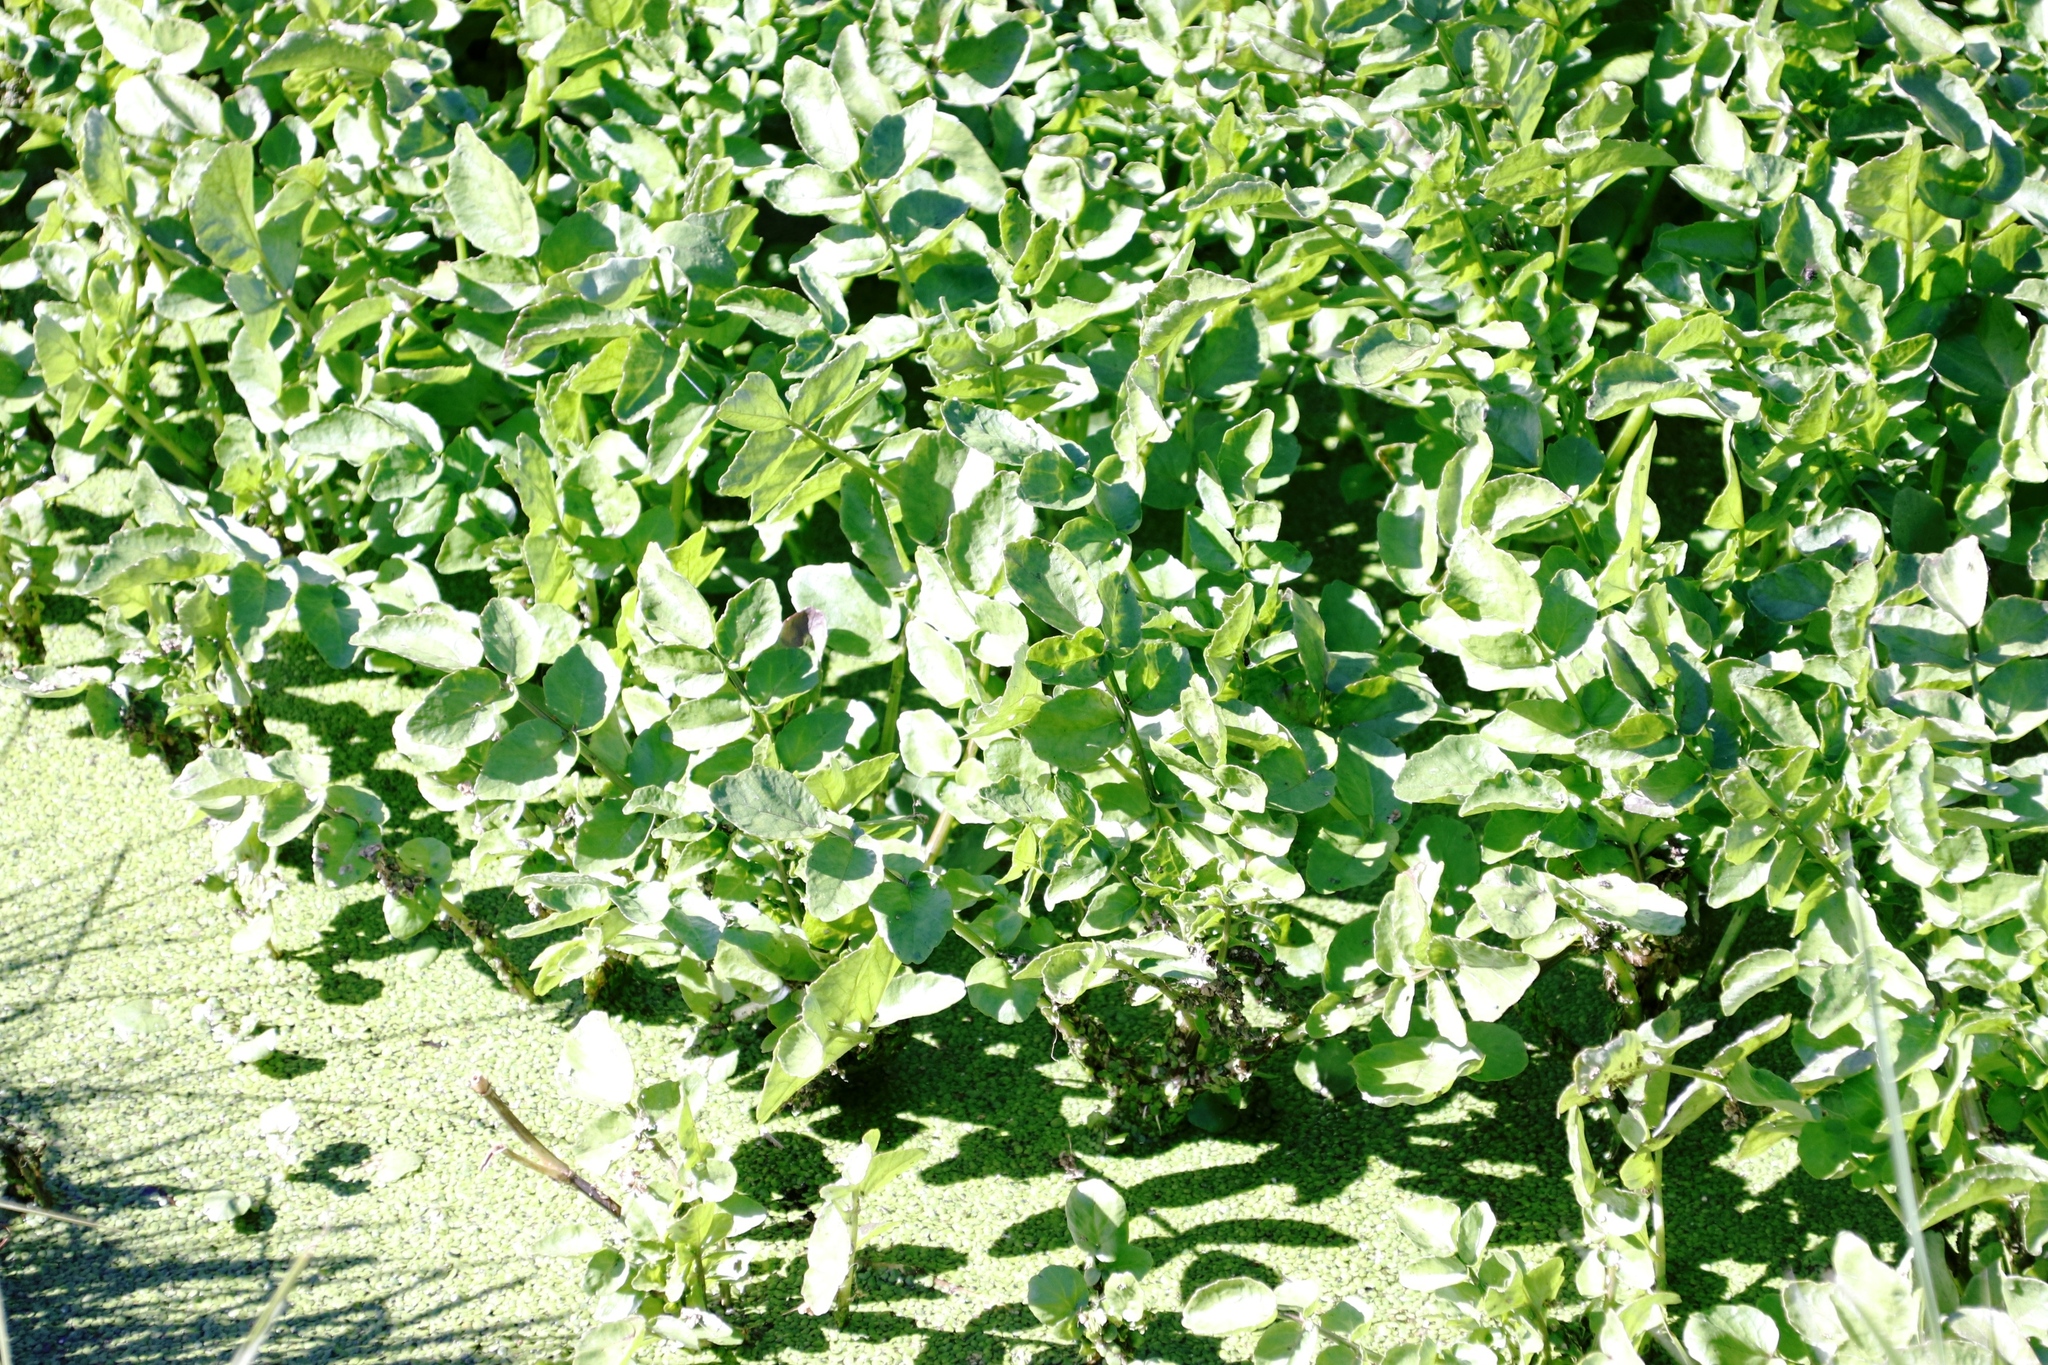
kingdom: Plantae
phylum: Tracheophyta
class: Magnoliopsida
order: Apiales
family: Apiaceae
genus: Berula
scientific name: Berula thunbergii
